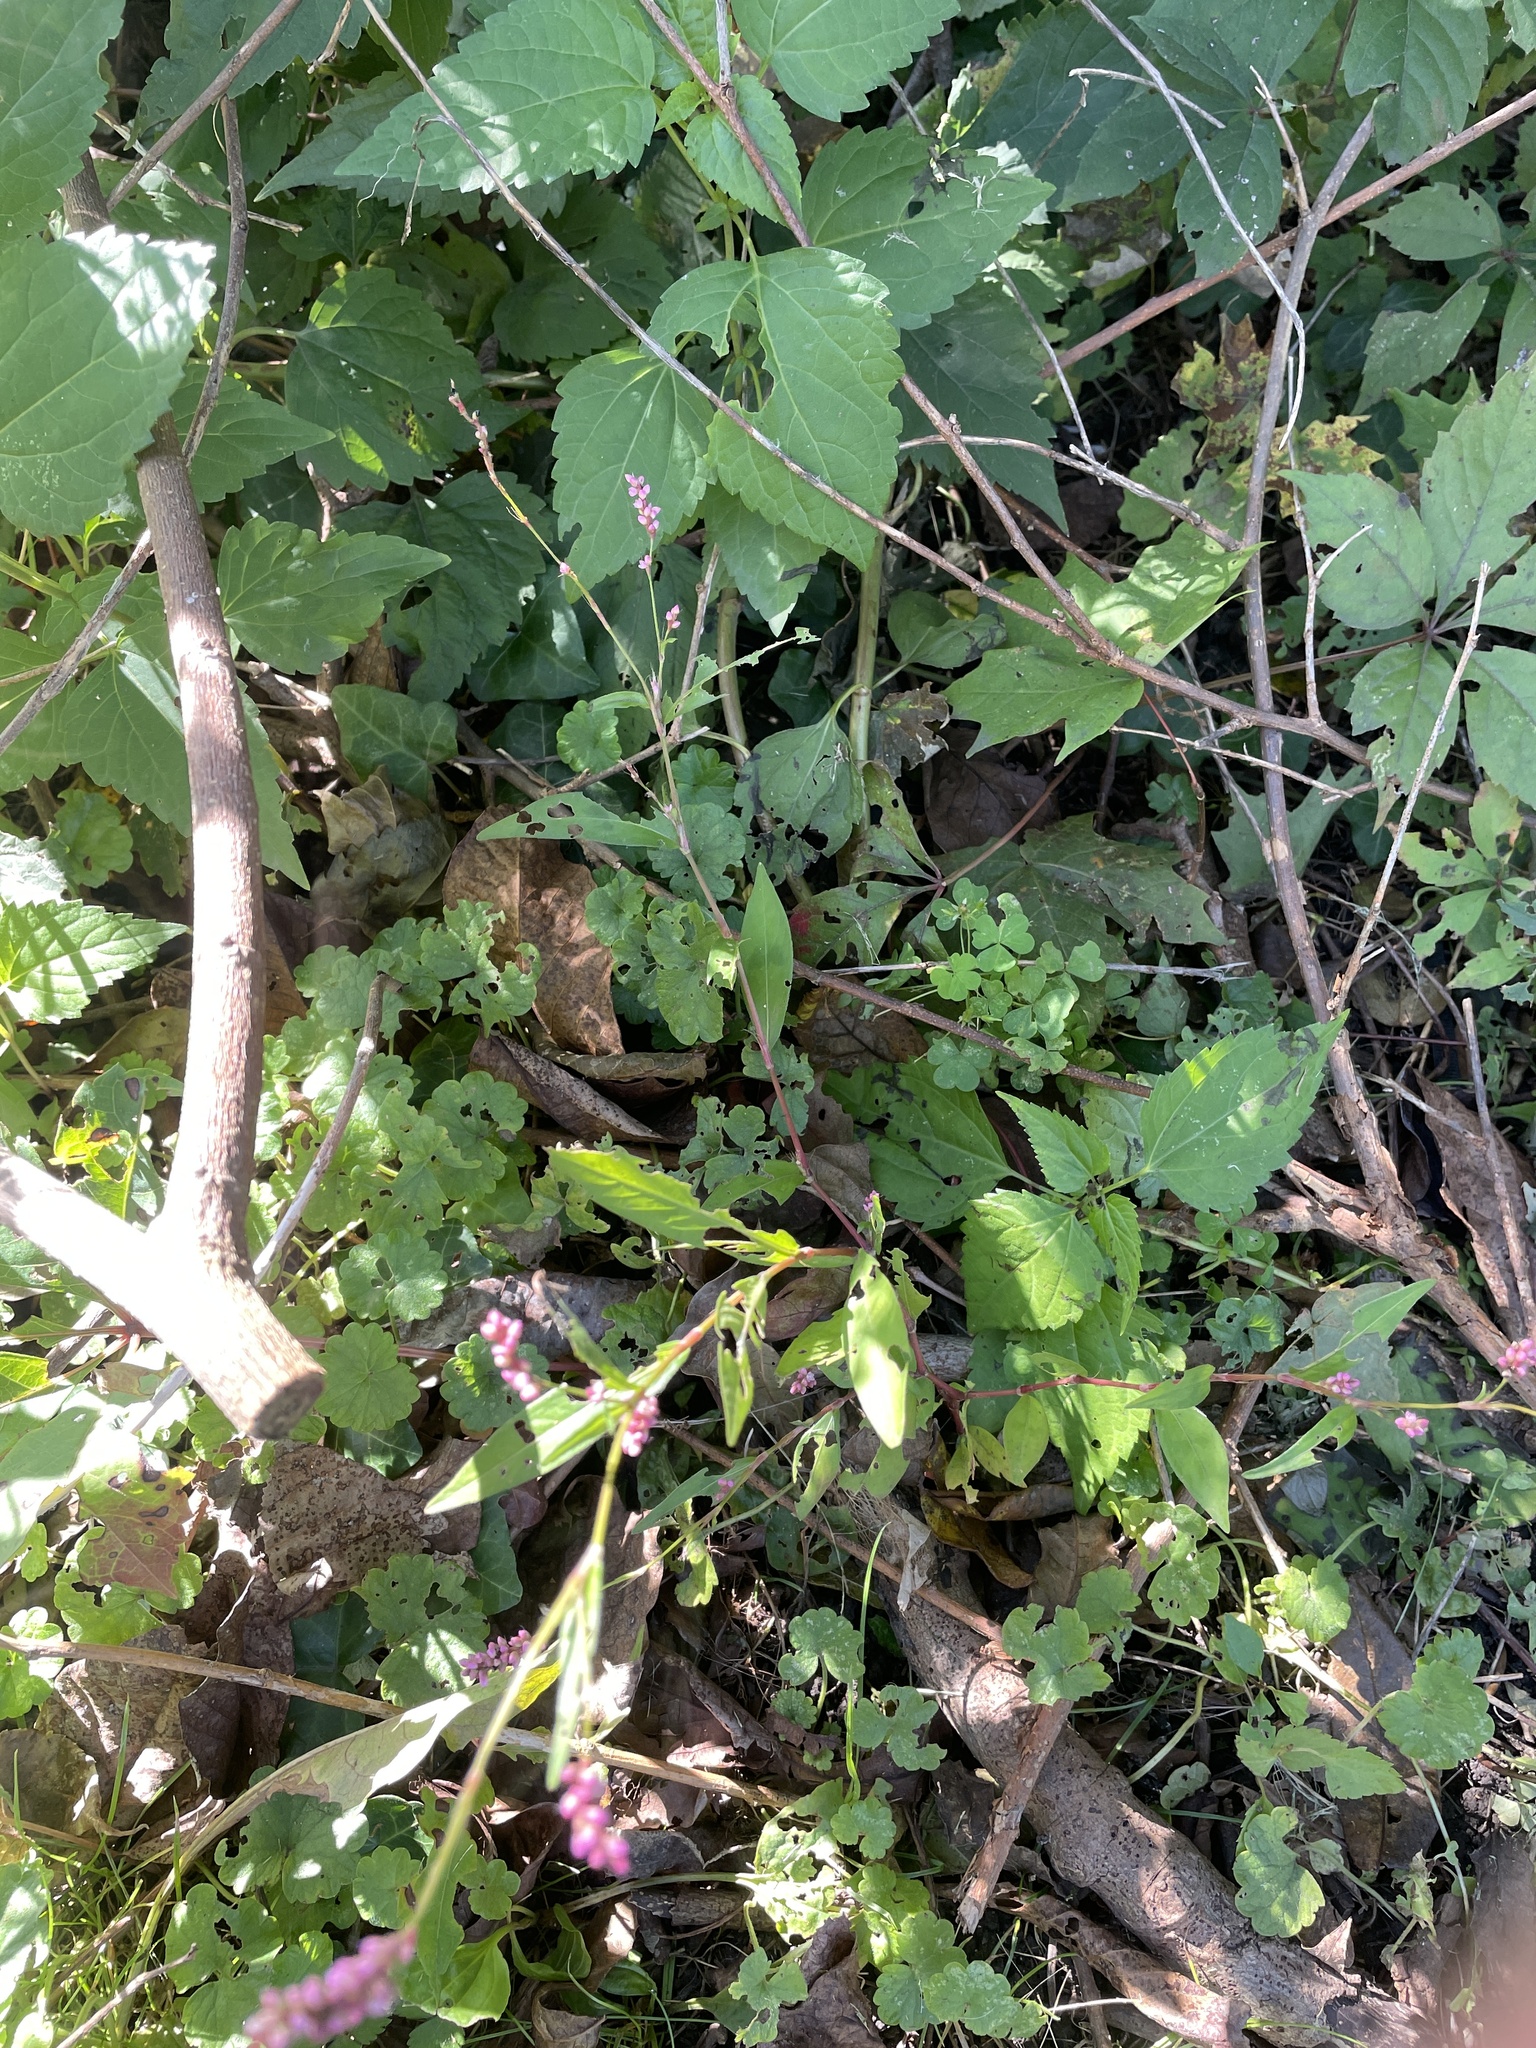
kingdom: Plantae
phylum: Tracheophyta
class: Magnoliopsida
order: Caryophyllales
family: Polygonaceae
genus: Persicaria
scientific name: Persicaria longiseta
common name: Bristly lady's-thumb
